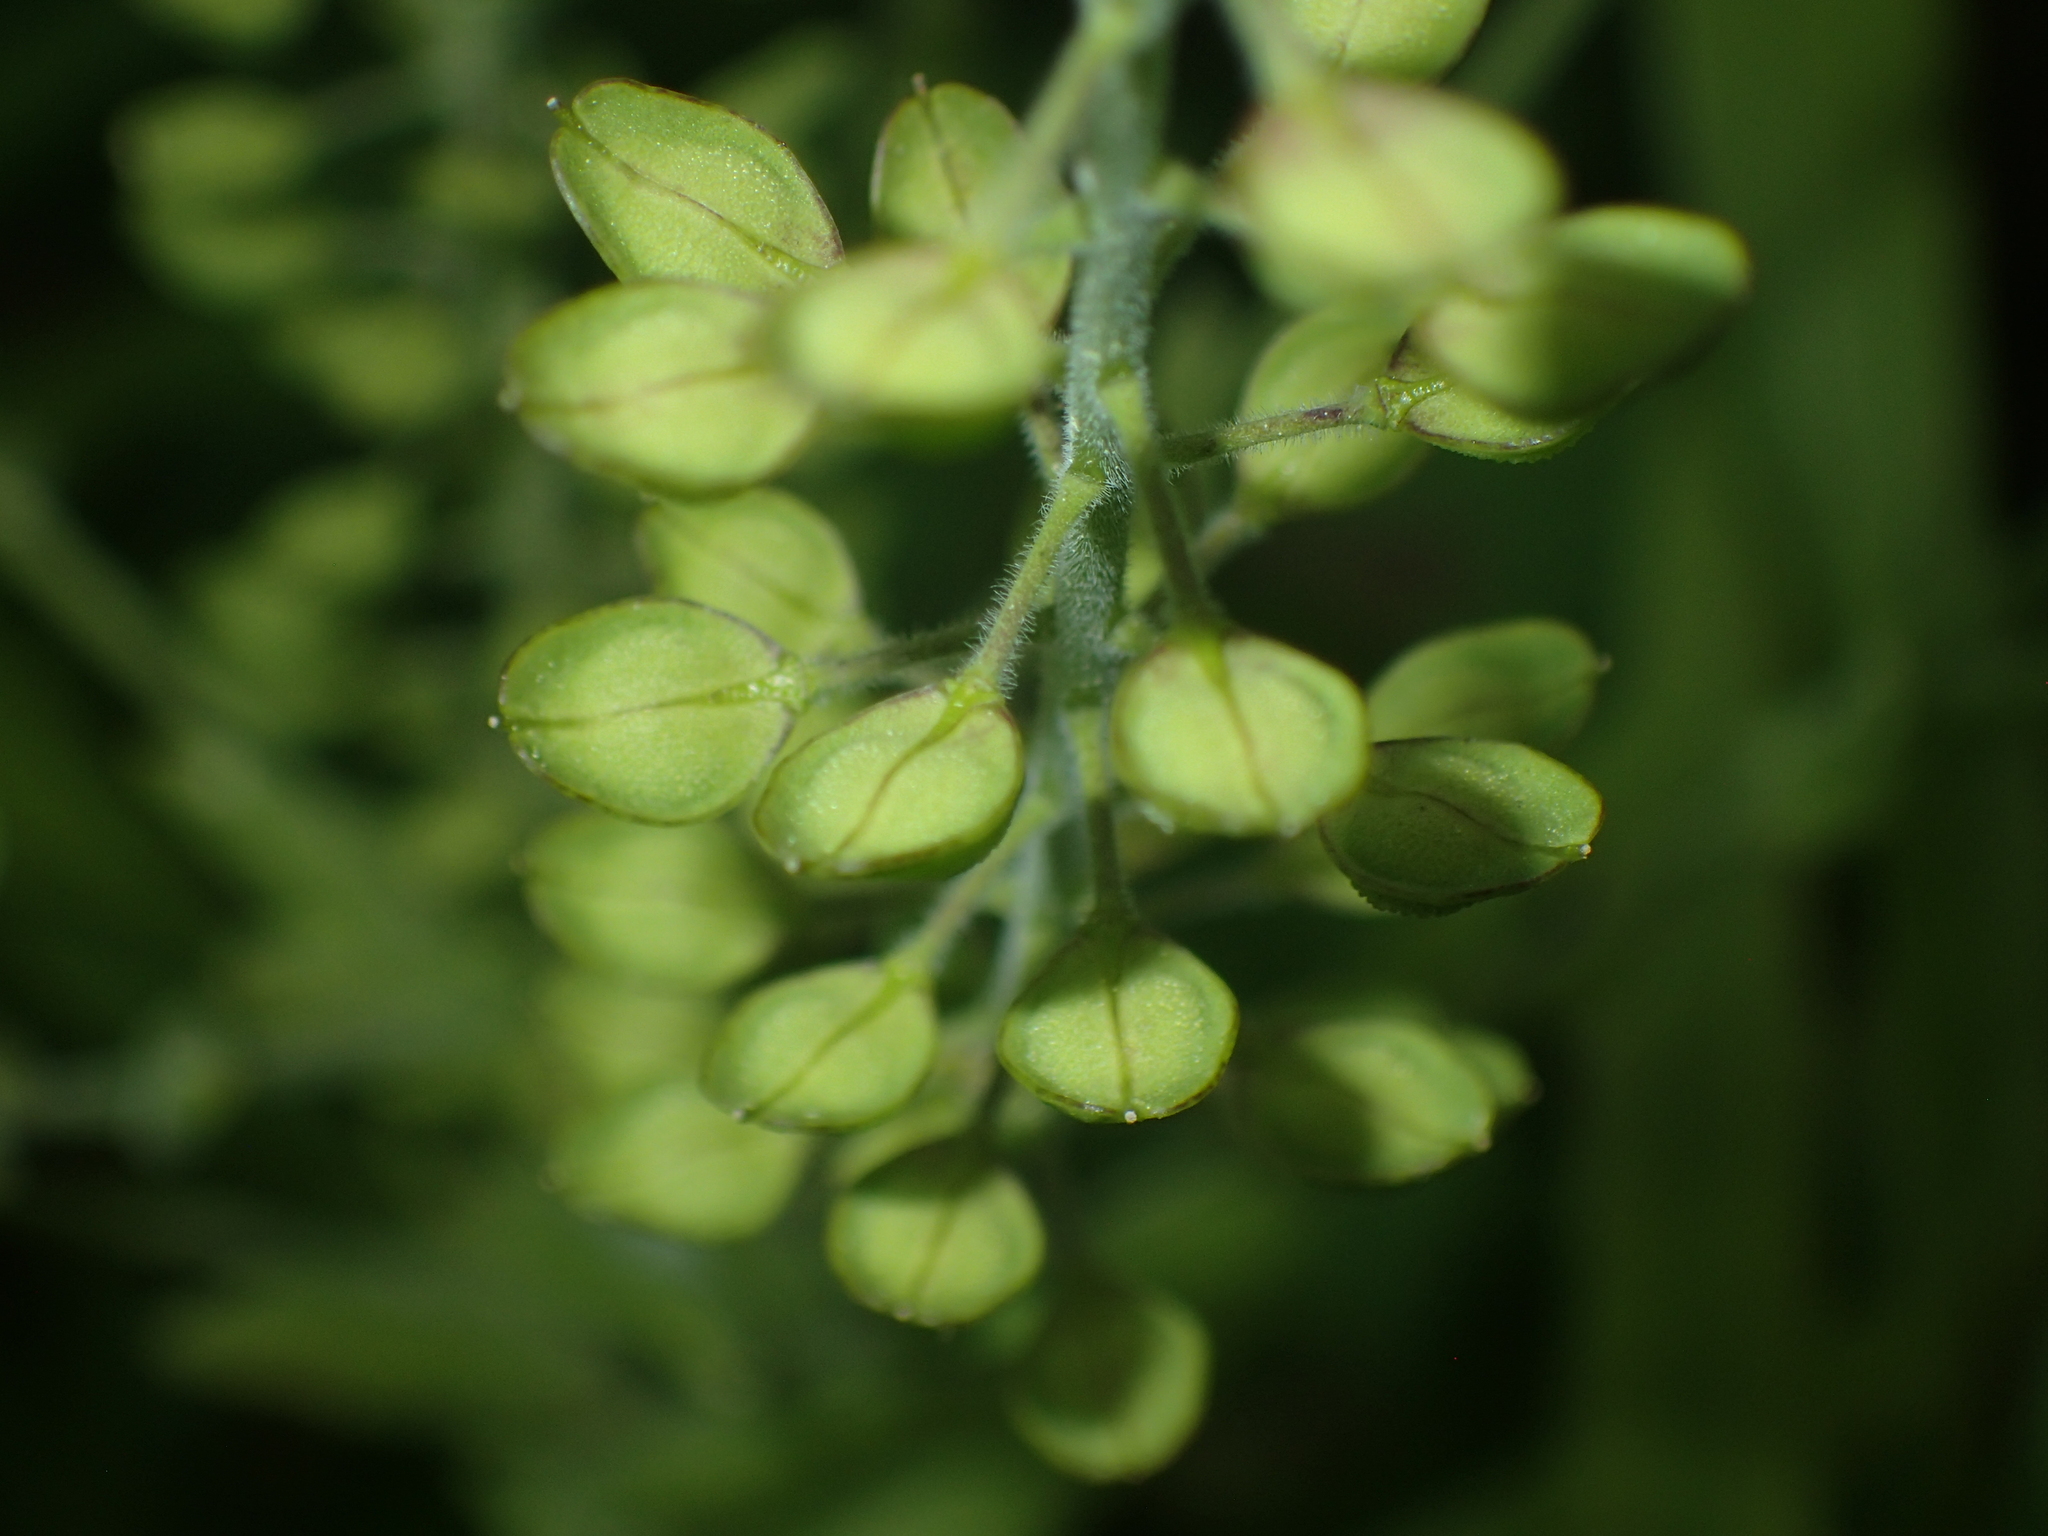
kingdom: Plantae
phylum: Tracheophyta
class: Magnoliopsida
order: Brassicales
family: Brassicaceae
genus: Lepidium
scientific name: Lepidium campestre
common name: Field pepperwort
